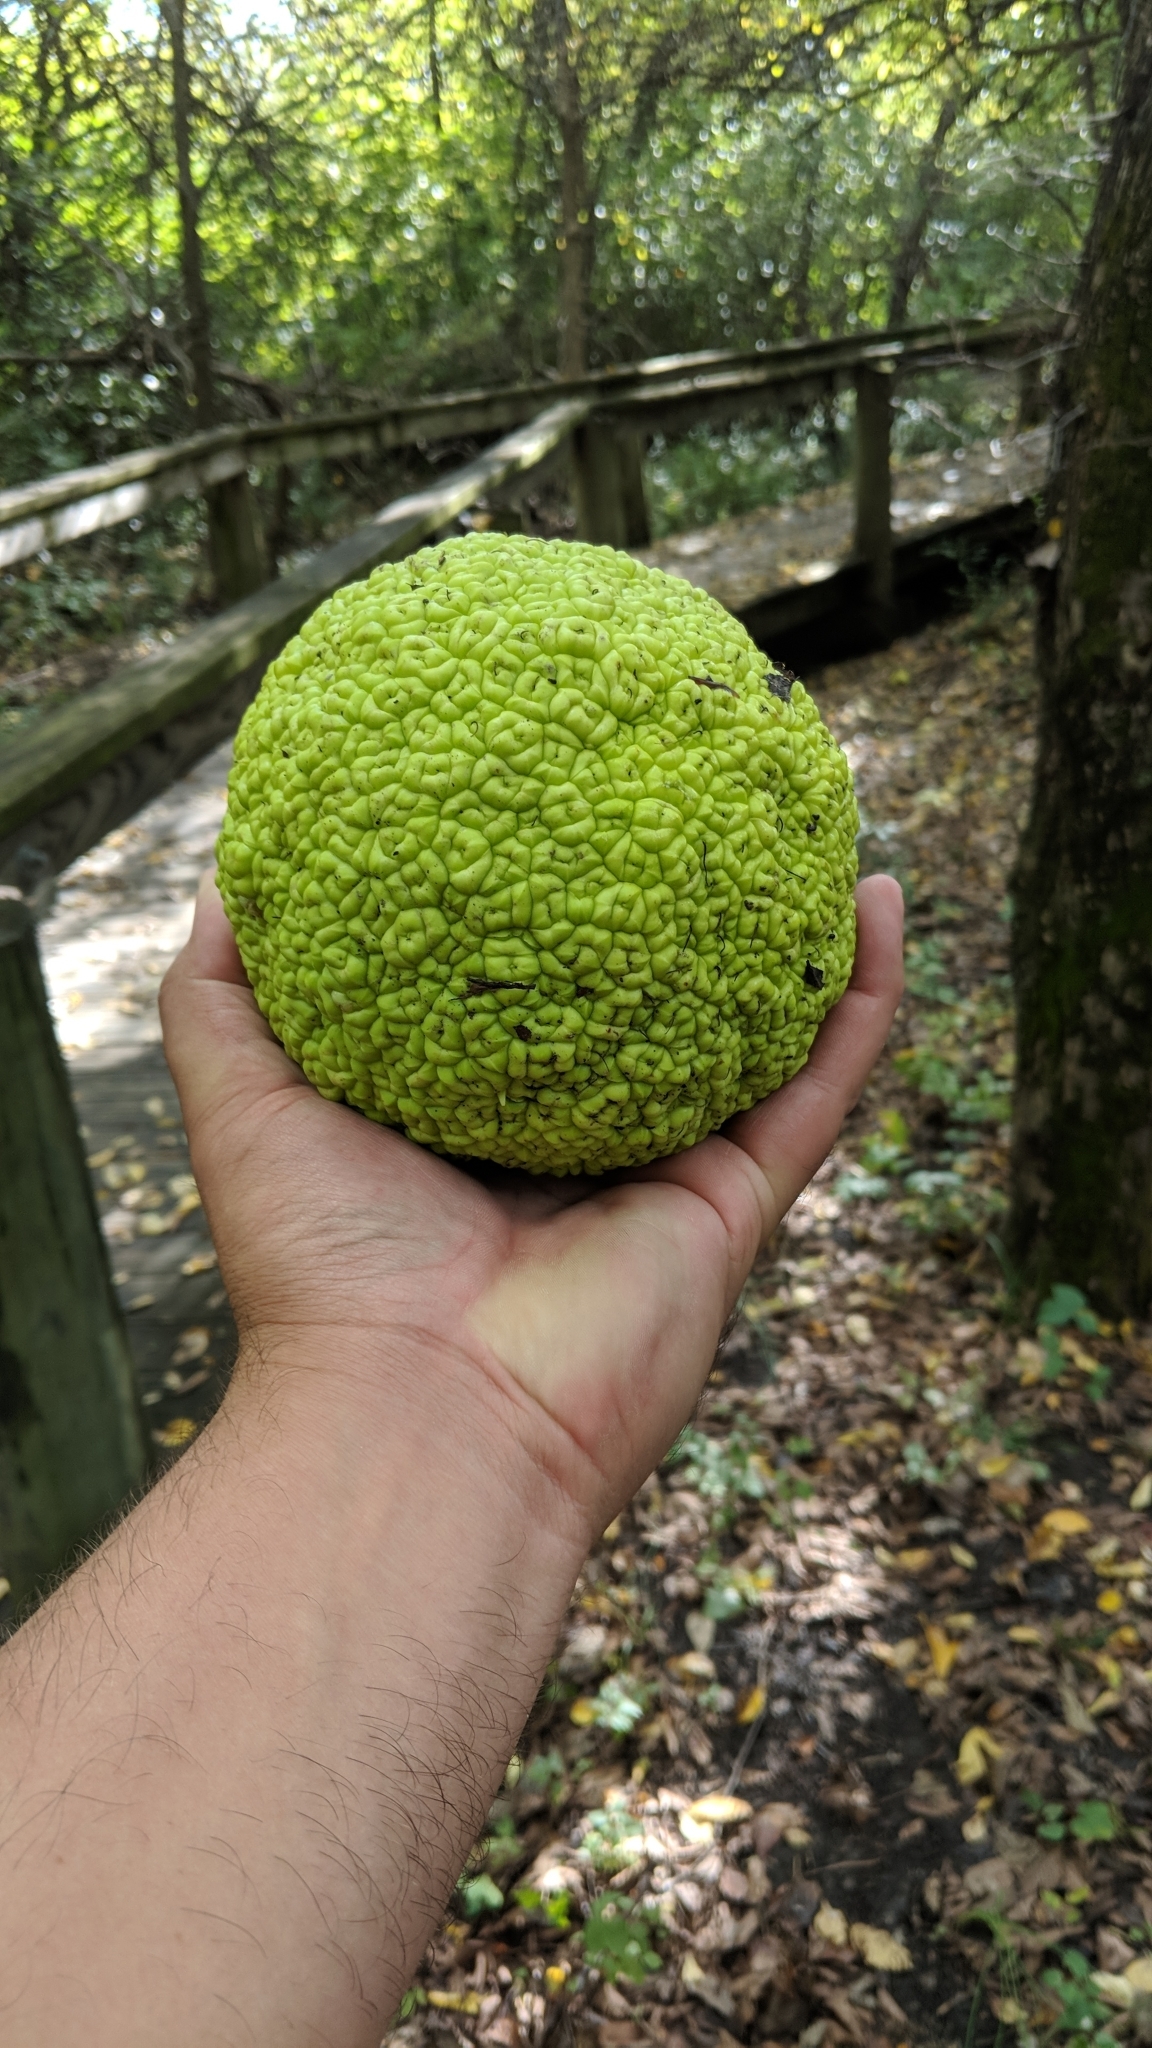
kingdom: Plantae
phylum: Tracheophyta
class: Magnoliopsida
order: Rosales
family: Moraceae
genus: Maclura
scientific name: Maclura pomifera
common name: Osage-orange
